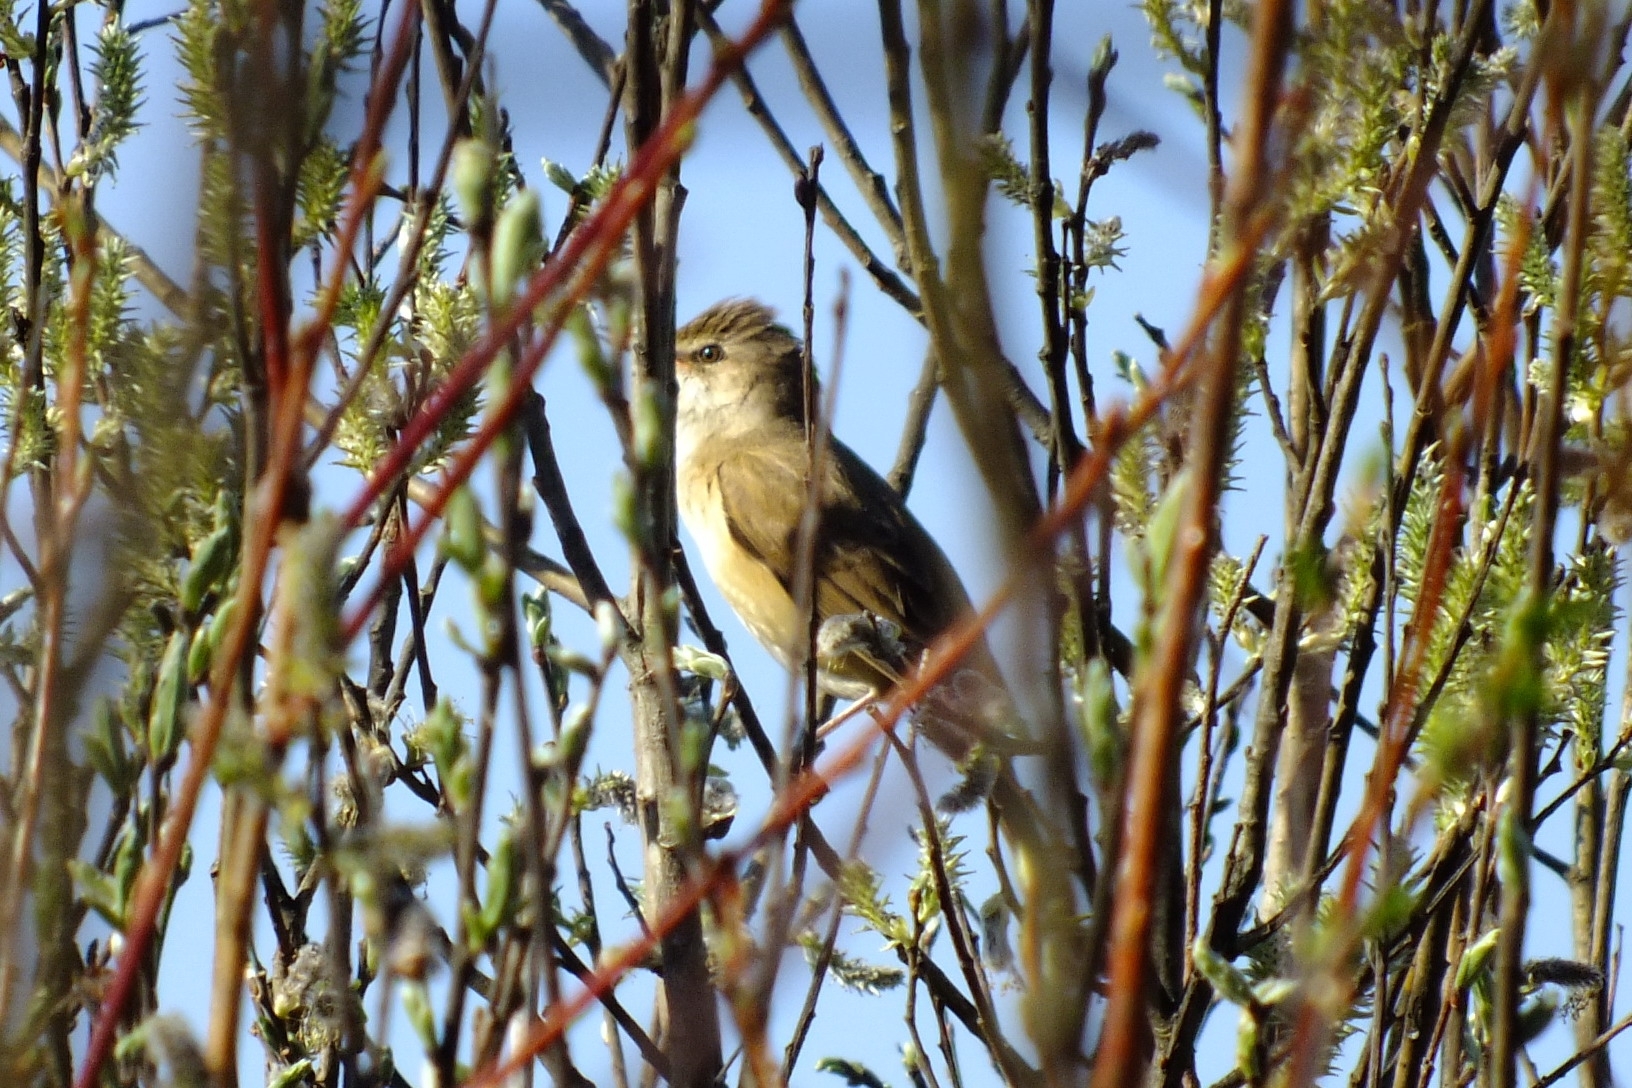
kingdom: Animalia
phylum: Chordata
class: Aves
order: Passeriformes
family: Acrocephalidae
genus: Acrocephalus
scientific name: Acrocephalus arundinaceus
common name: Great reed warbler
